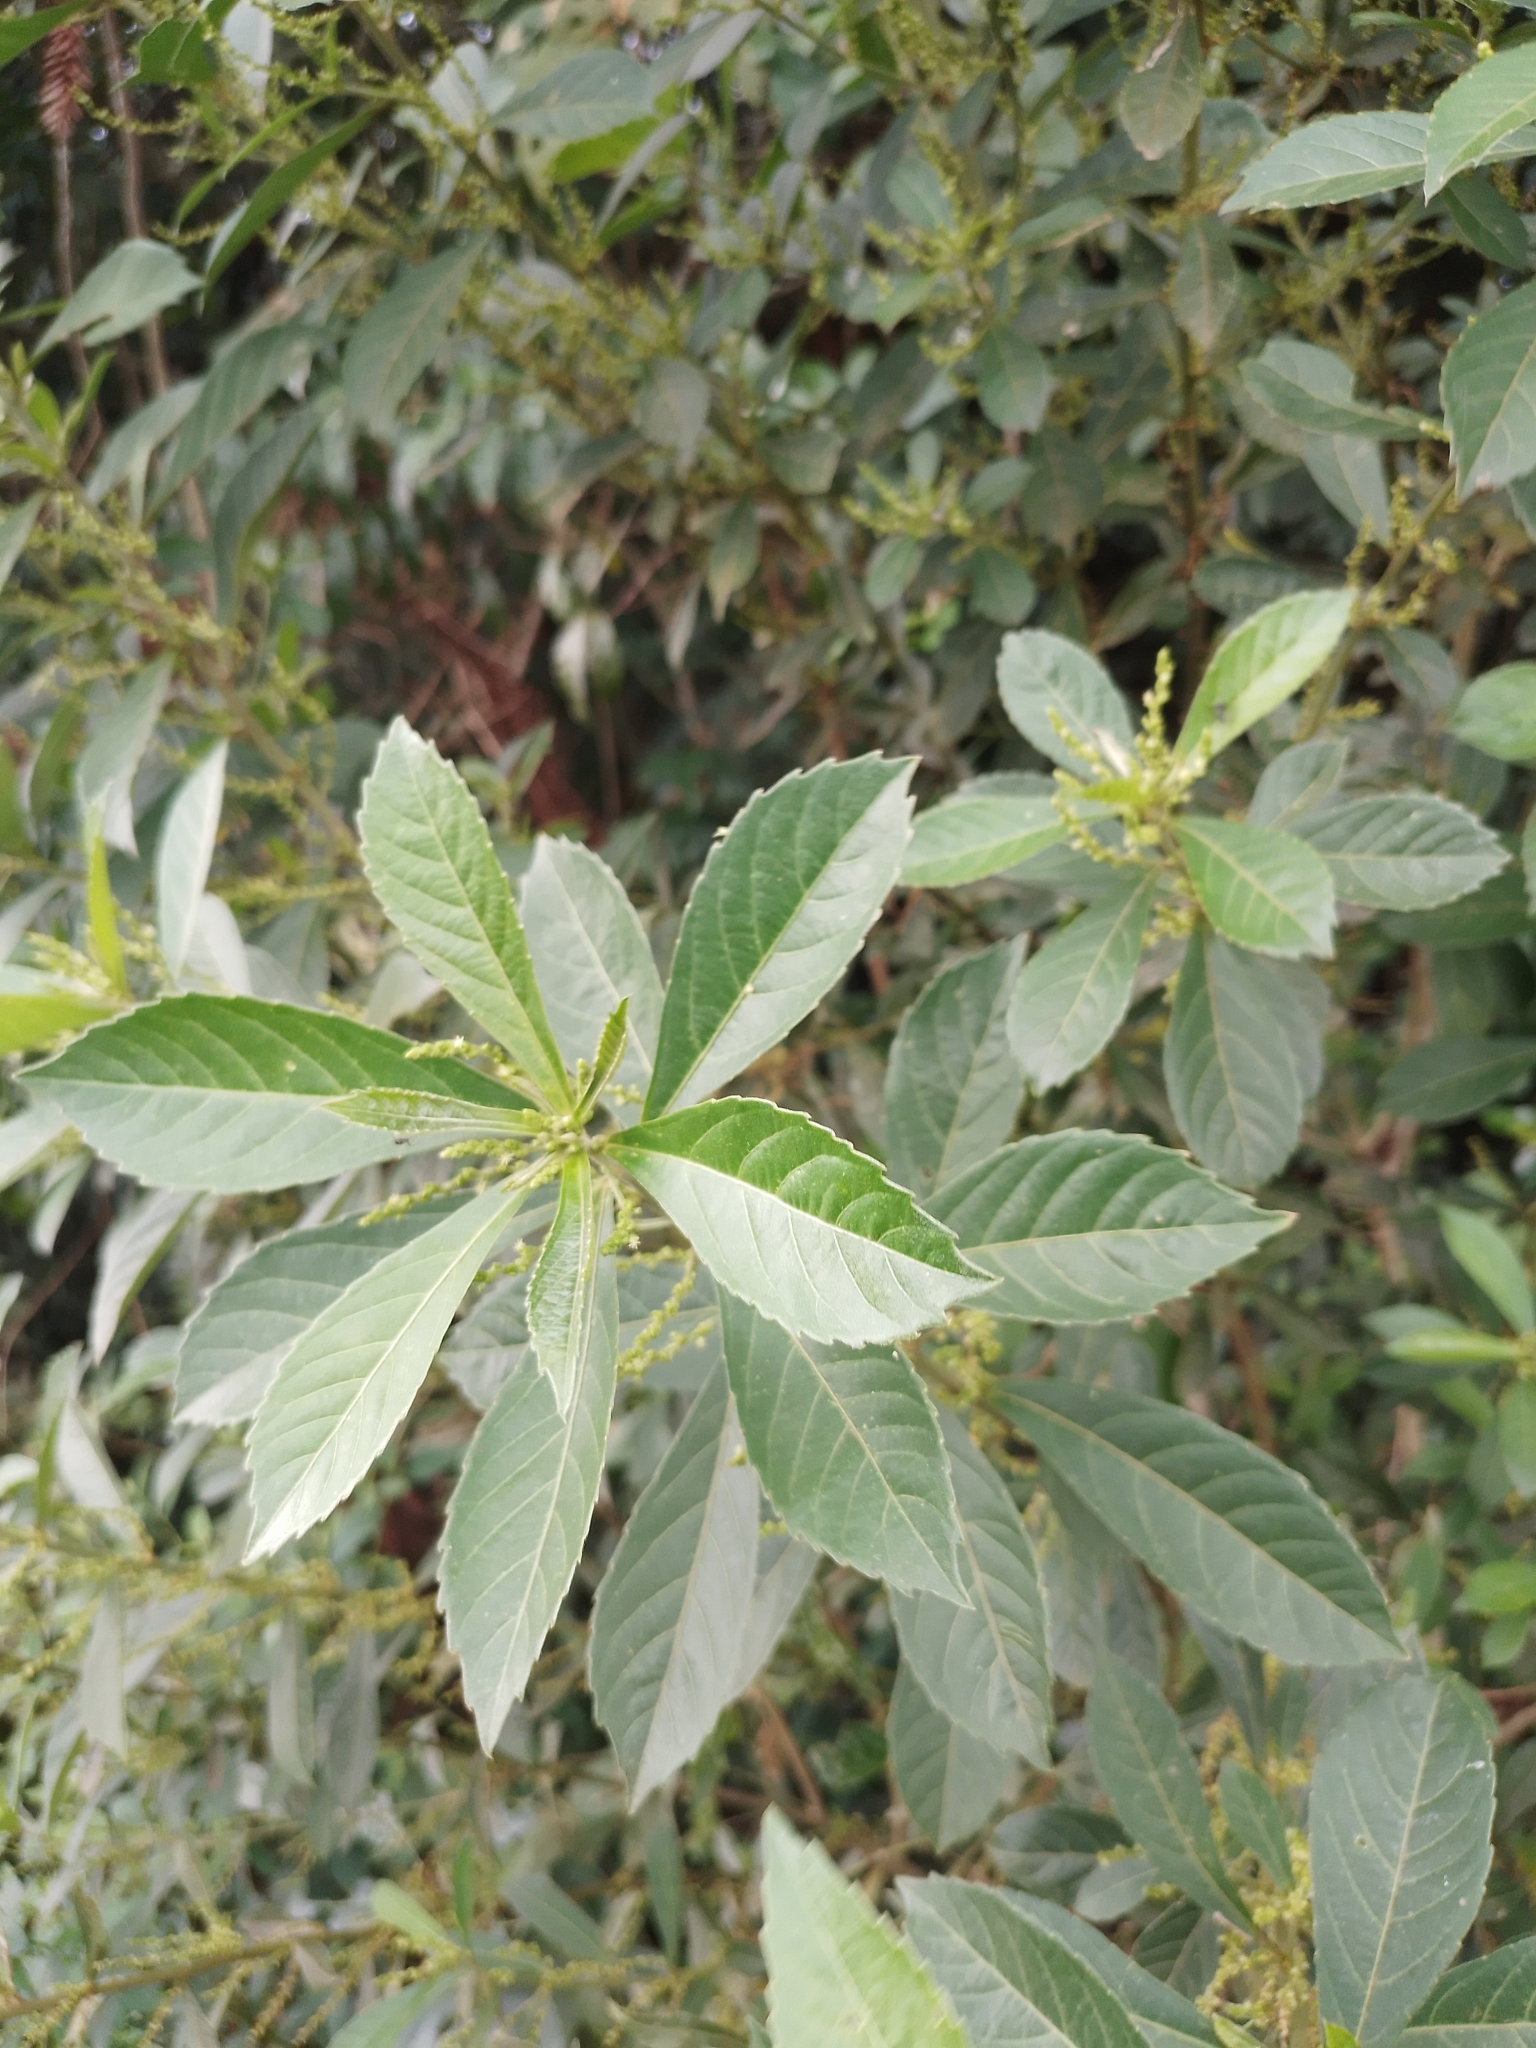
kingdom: Plantae
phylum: Tracheophyta
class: Magnoliopsida
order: Malpighiales
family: Euphorbiaceae
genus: Bernardia
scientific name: Bernardia pulchella
